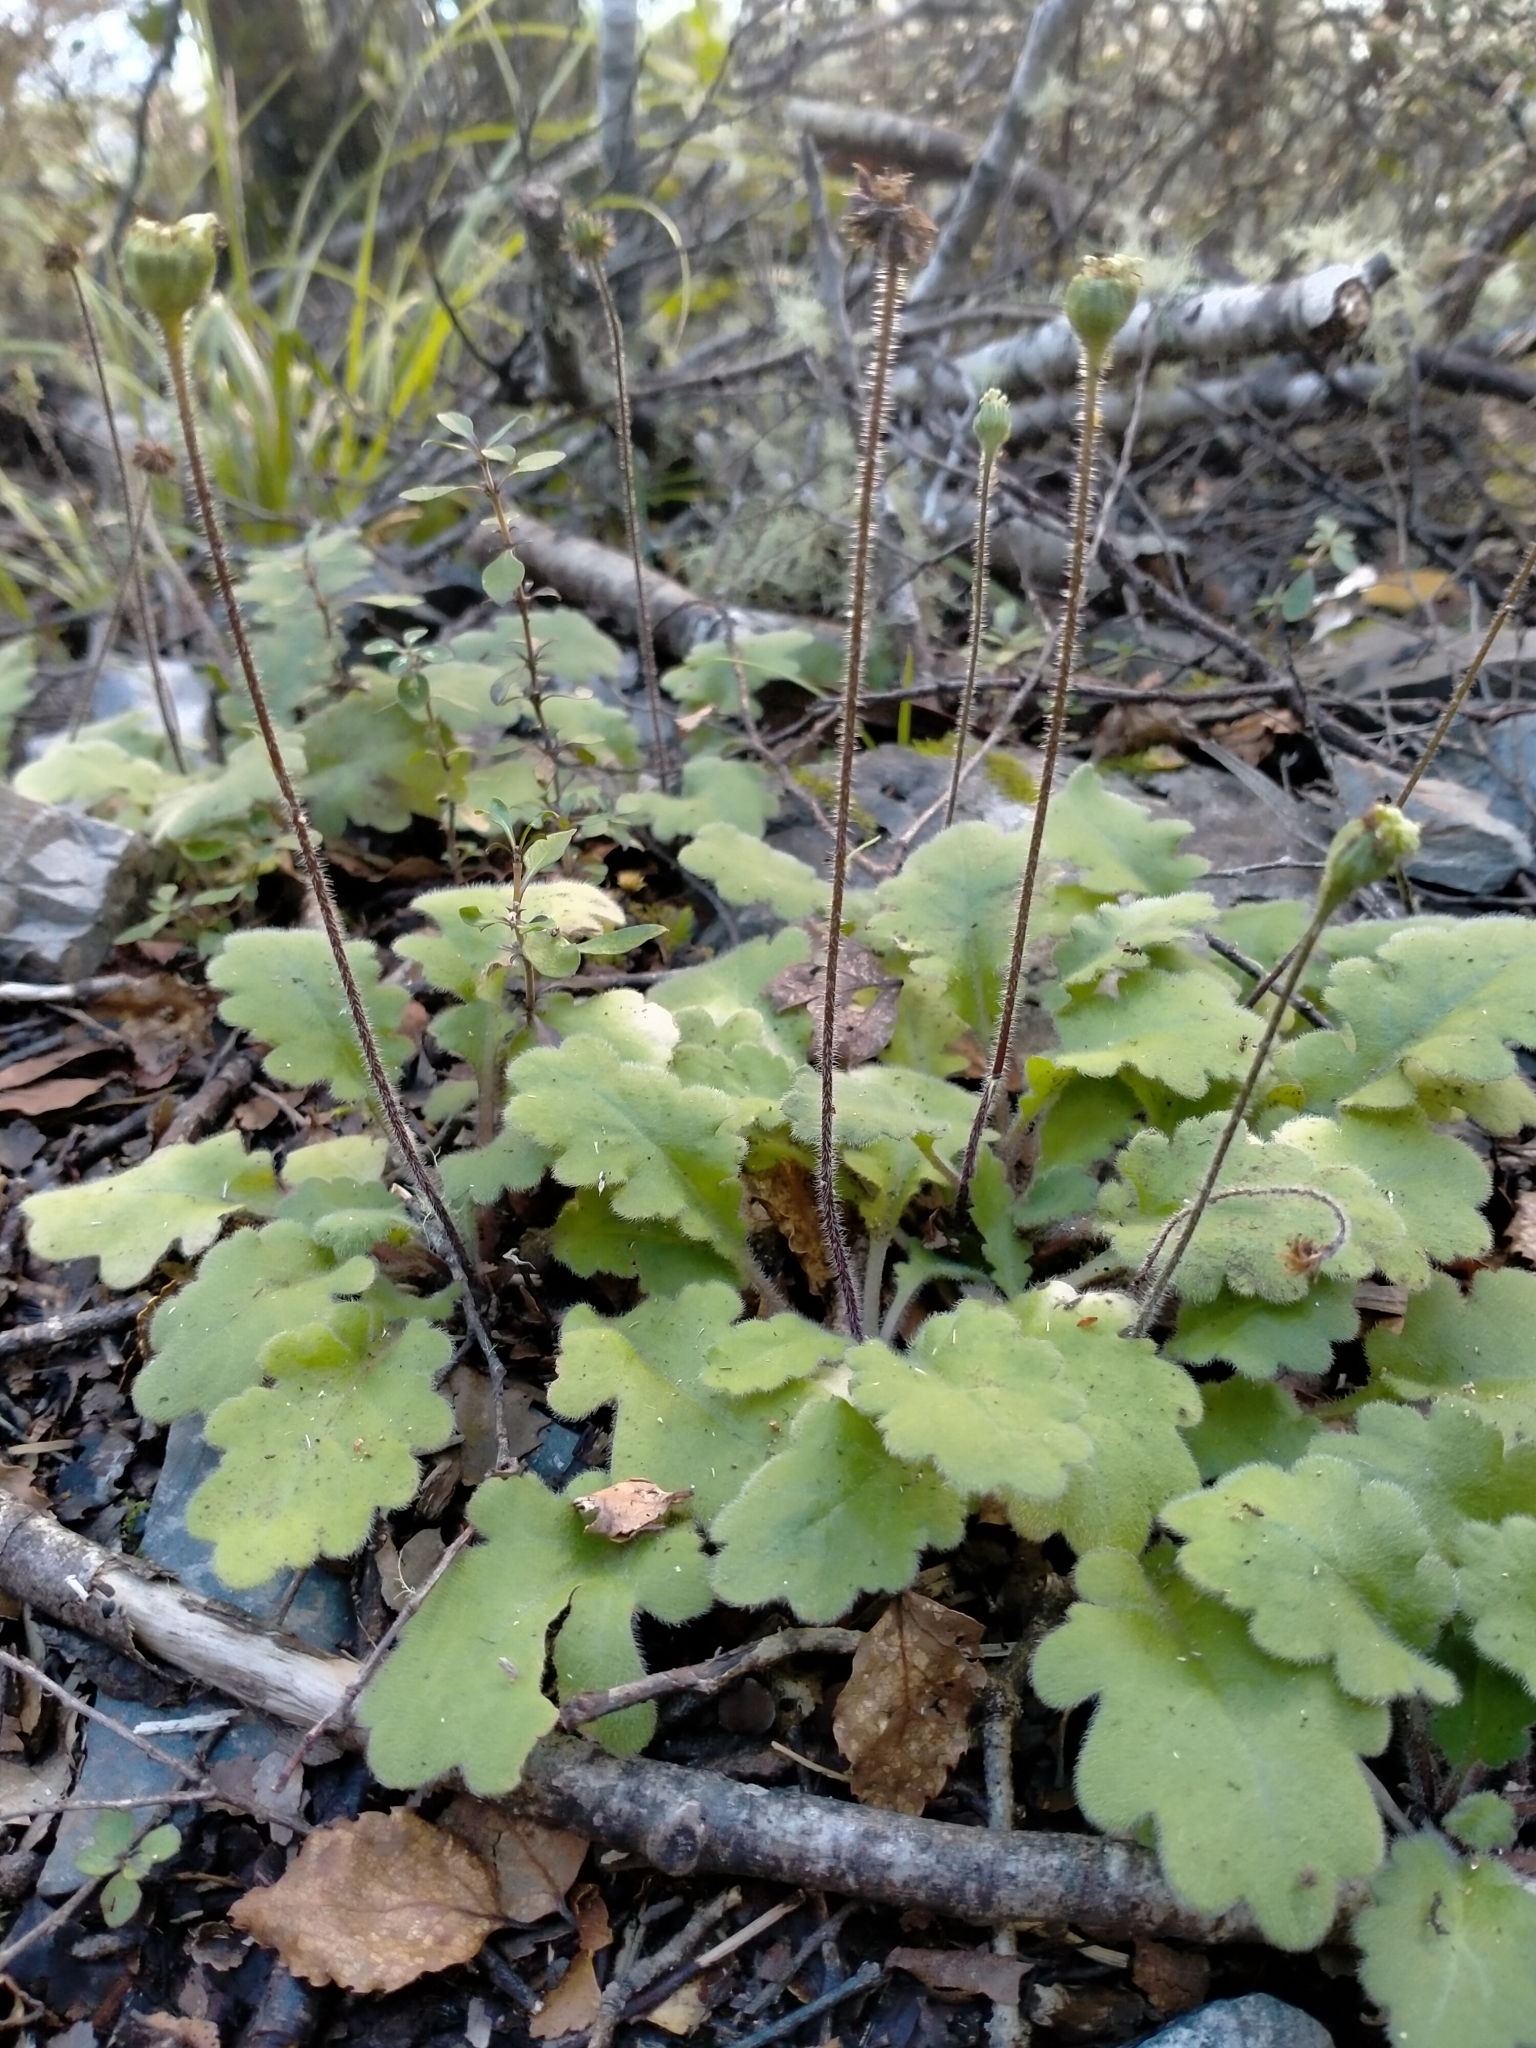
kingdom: Plantae
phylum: Tracheophyta
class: Magnoliopsida
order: Asterales
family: Asteraceae
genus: Lagenophora
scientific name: Lagenophora pinnatifida
